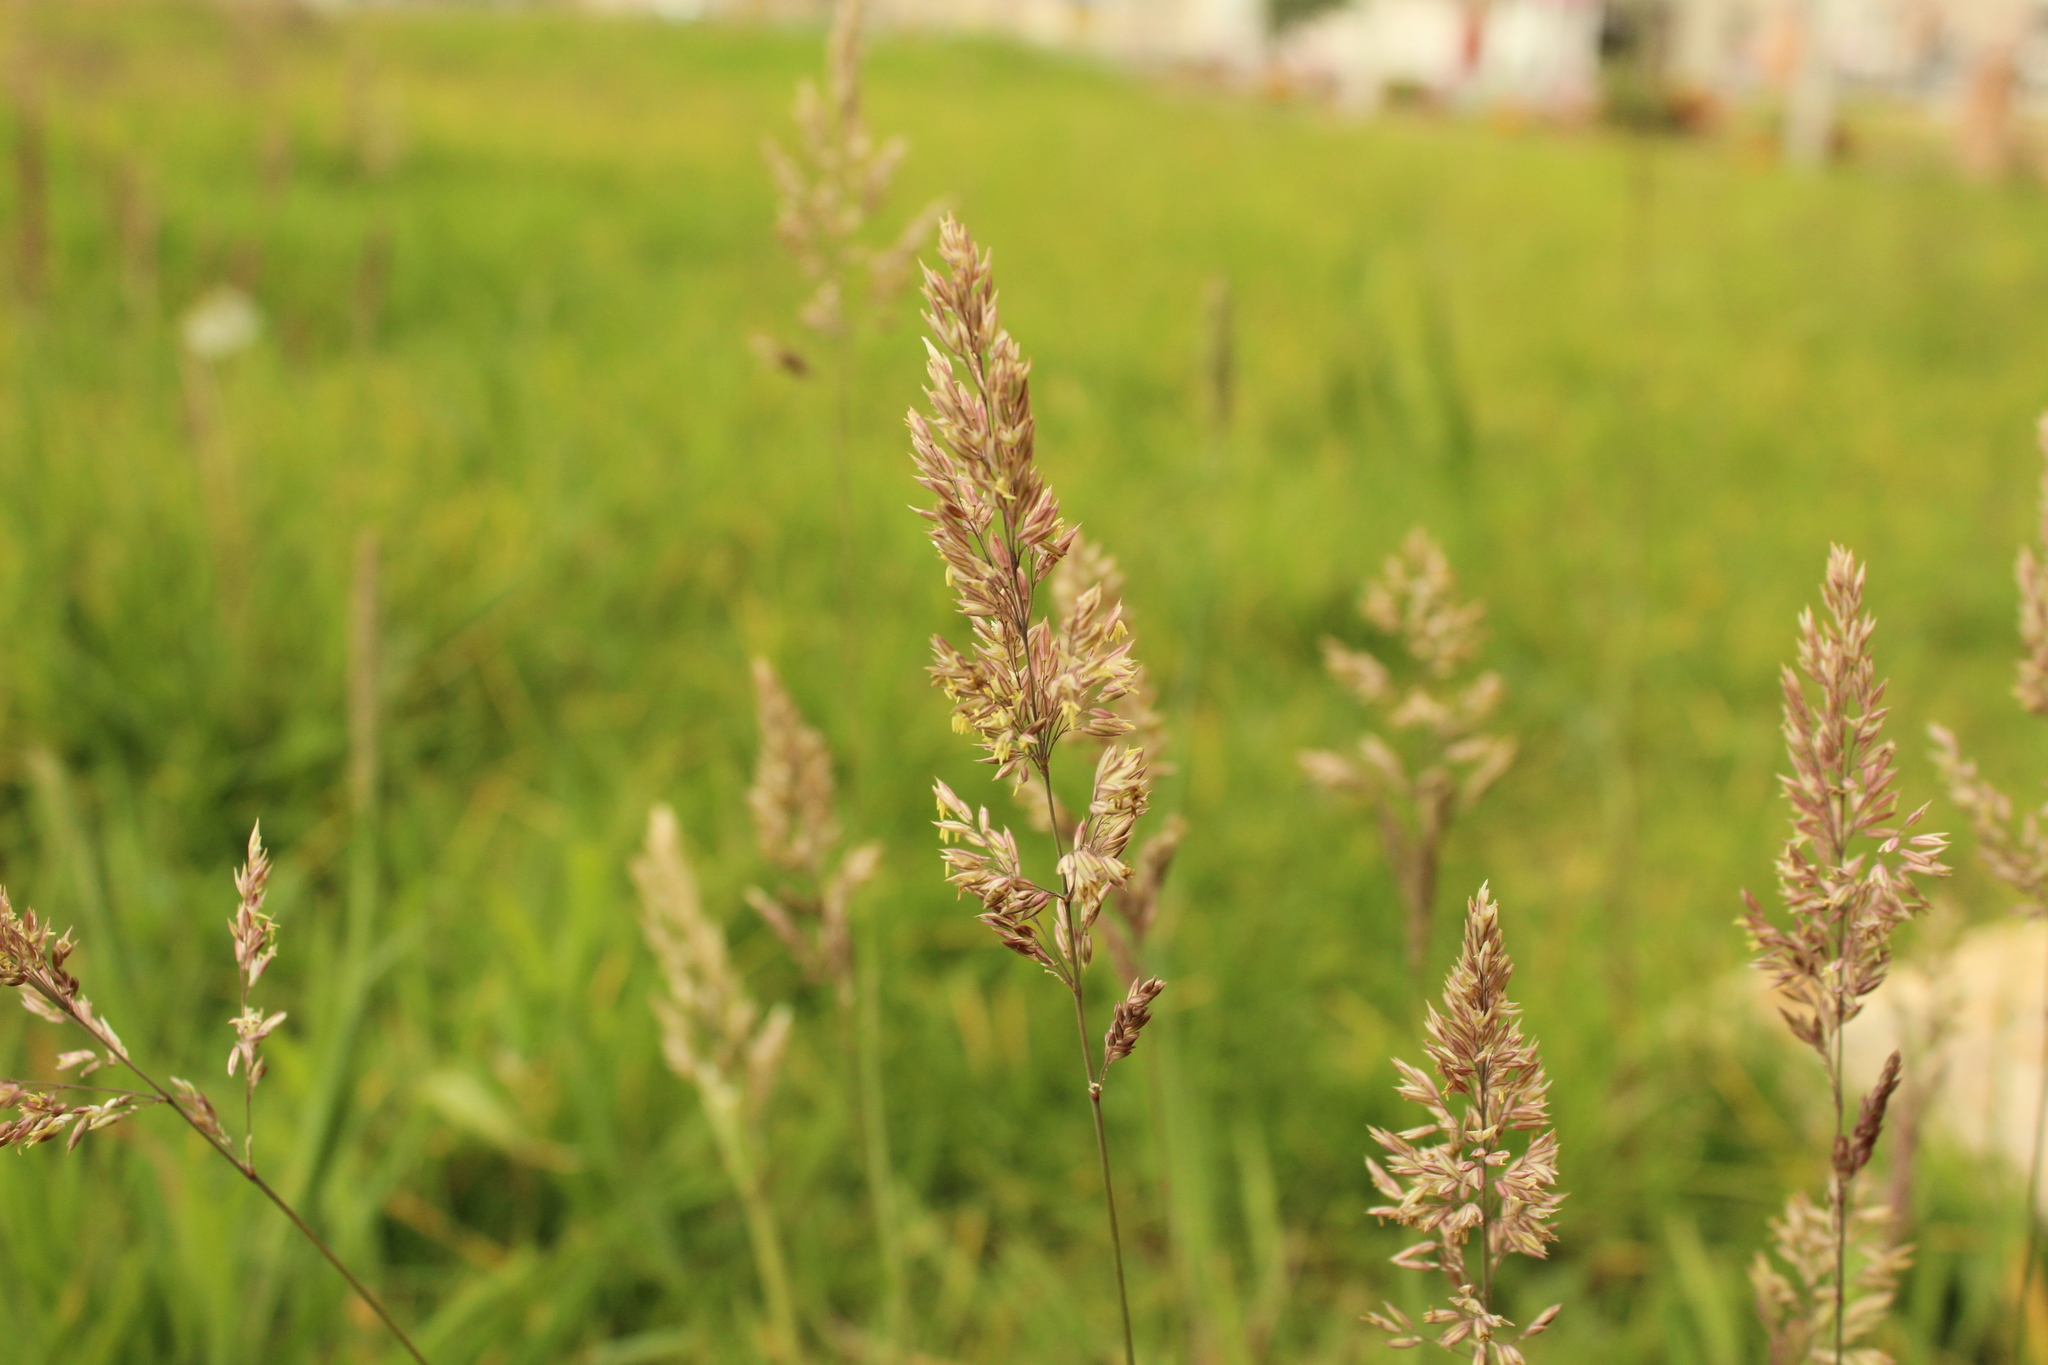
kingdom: Plantae
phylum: Tracheophyta
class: Liliopsida
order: Poales
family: Poaceae
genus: Holcus
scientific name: Holcus lanatus
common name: Yorkshire-fog
